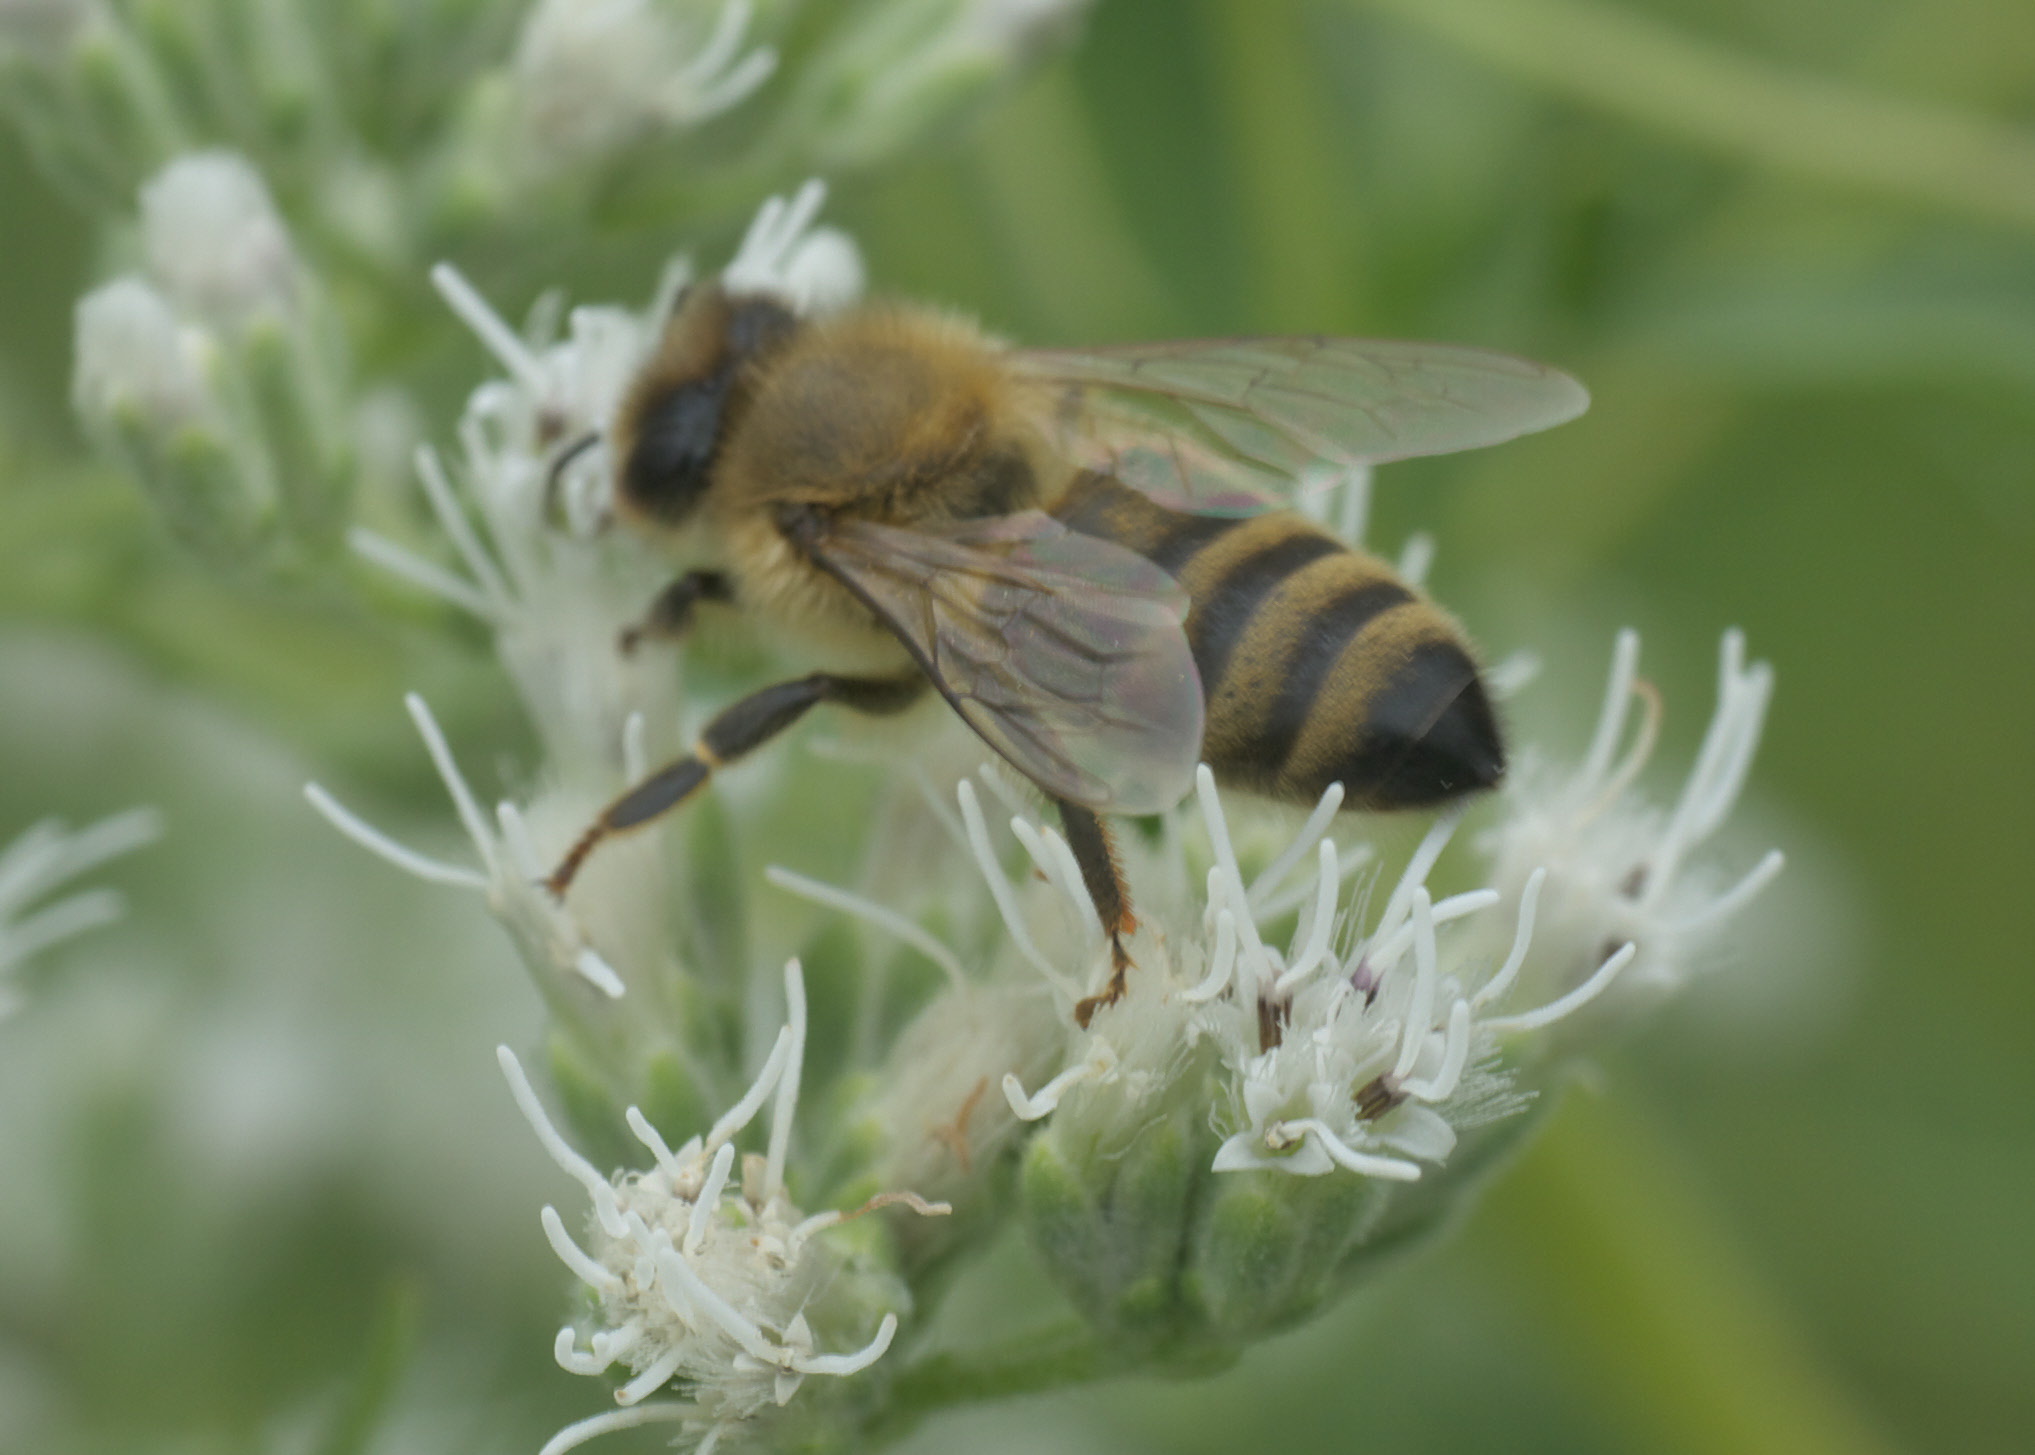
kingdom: Animalia
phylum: Arthropoda
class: Insecta
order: Hymenoptera
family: Apidae
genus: Apis
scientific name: Apis mellifera
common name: Honey bee
